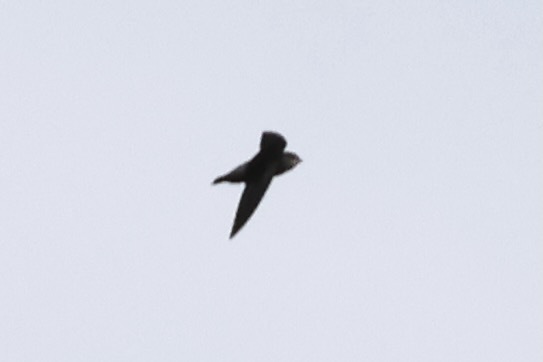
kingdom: Animalia
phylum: Chordata
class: Aves
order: Apodiformes
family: Apodidae
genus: Chaetura
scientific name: Chaetura fumosa
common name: Costa rican swift
